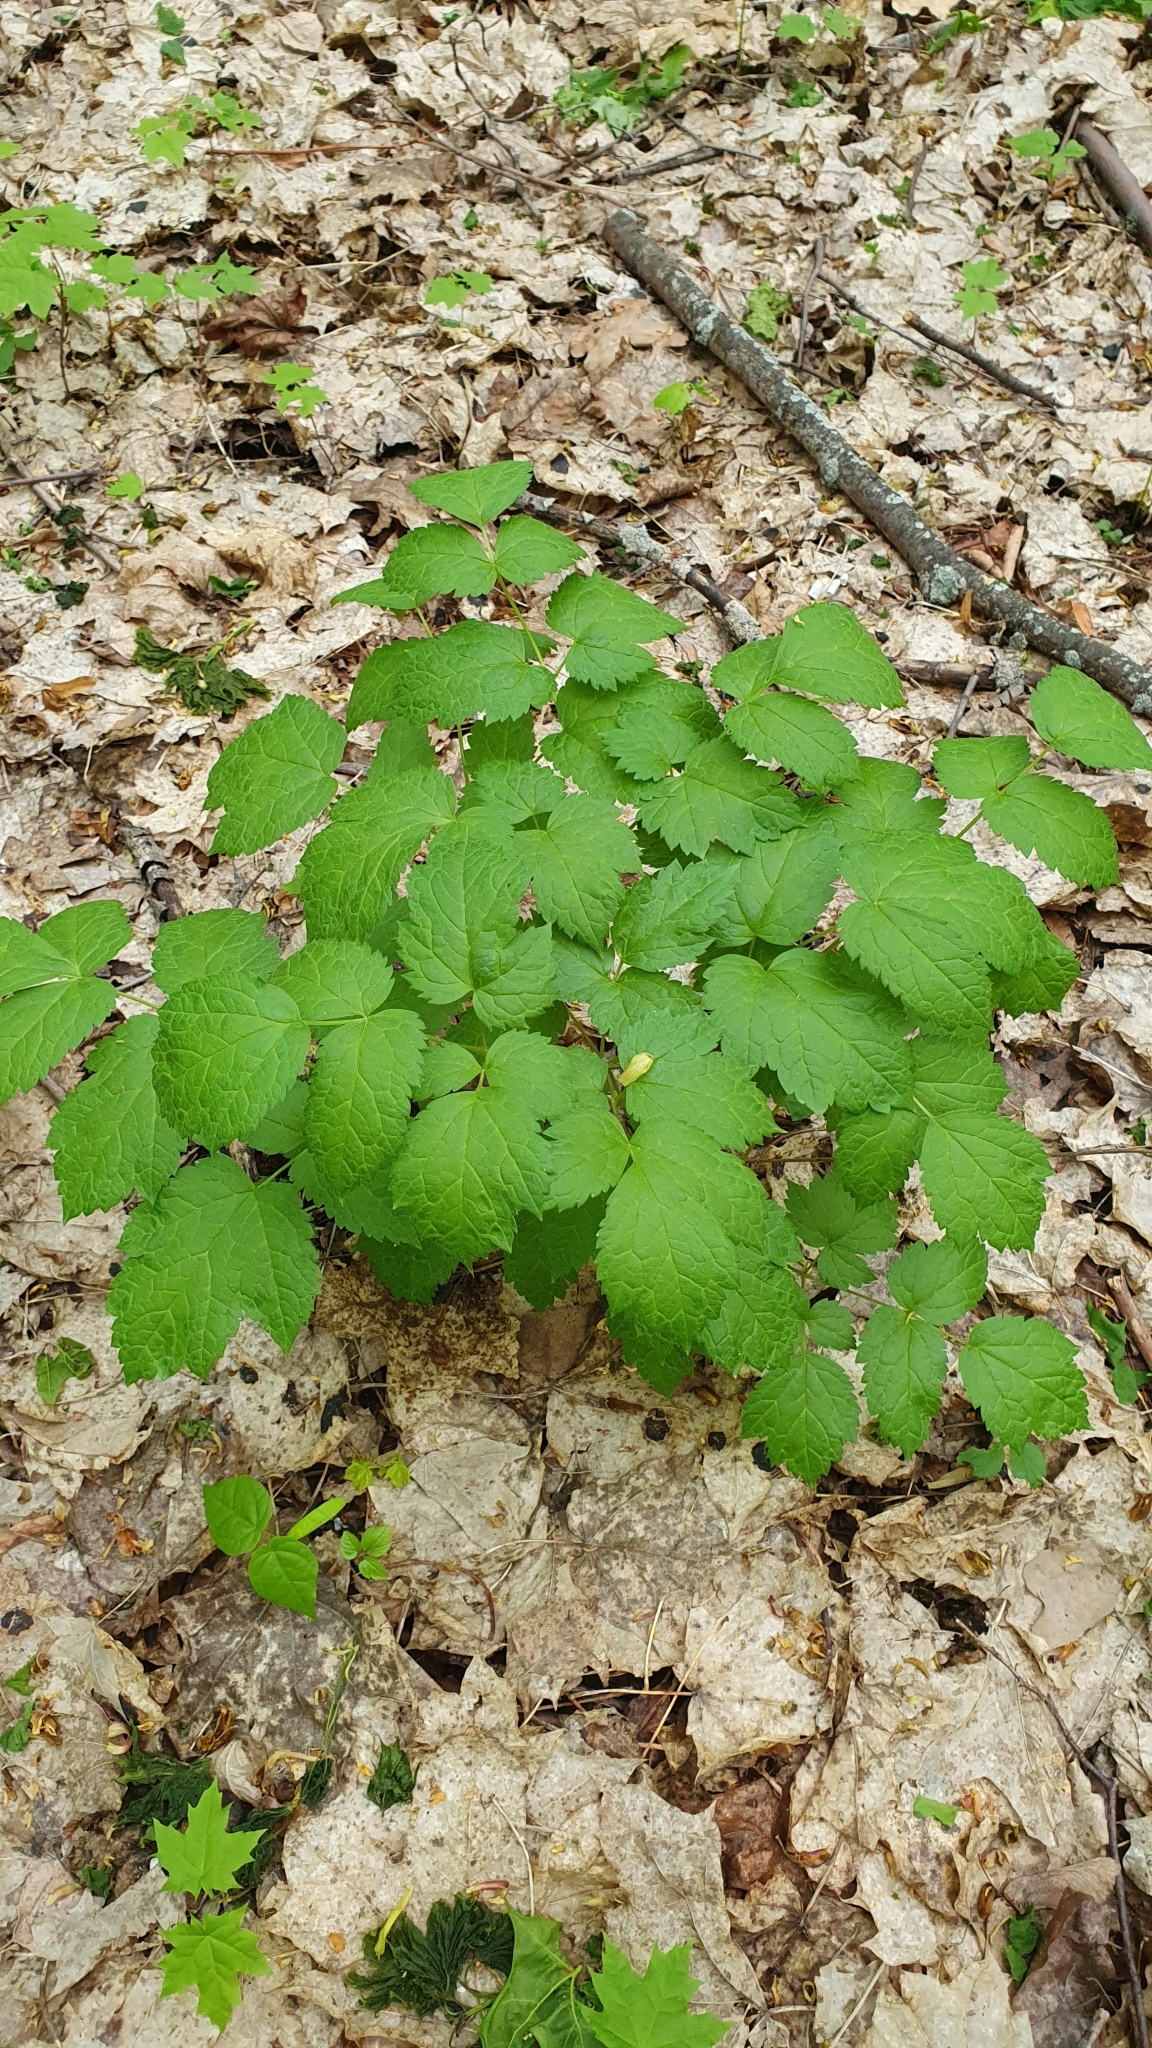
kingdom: Plantae
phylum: Tracheophyta
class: Magnoliopsida
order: Ranunculales
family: Ranunculaceae
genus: Actaea
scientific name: Actaea spicata
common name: Baneberry
